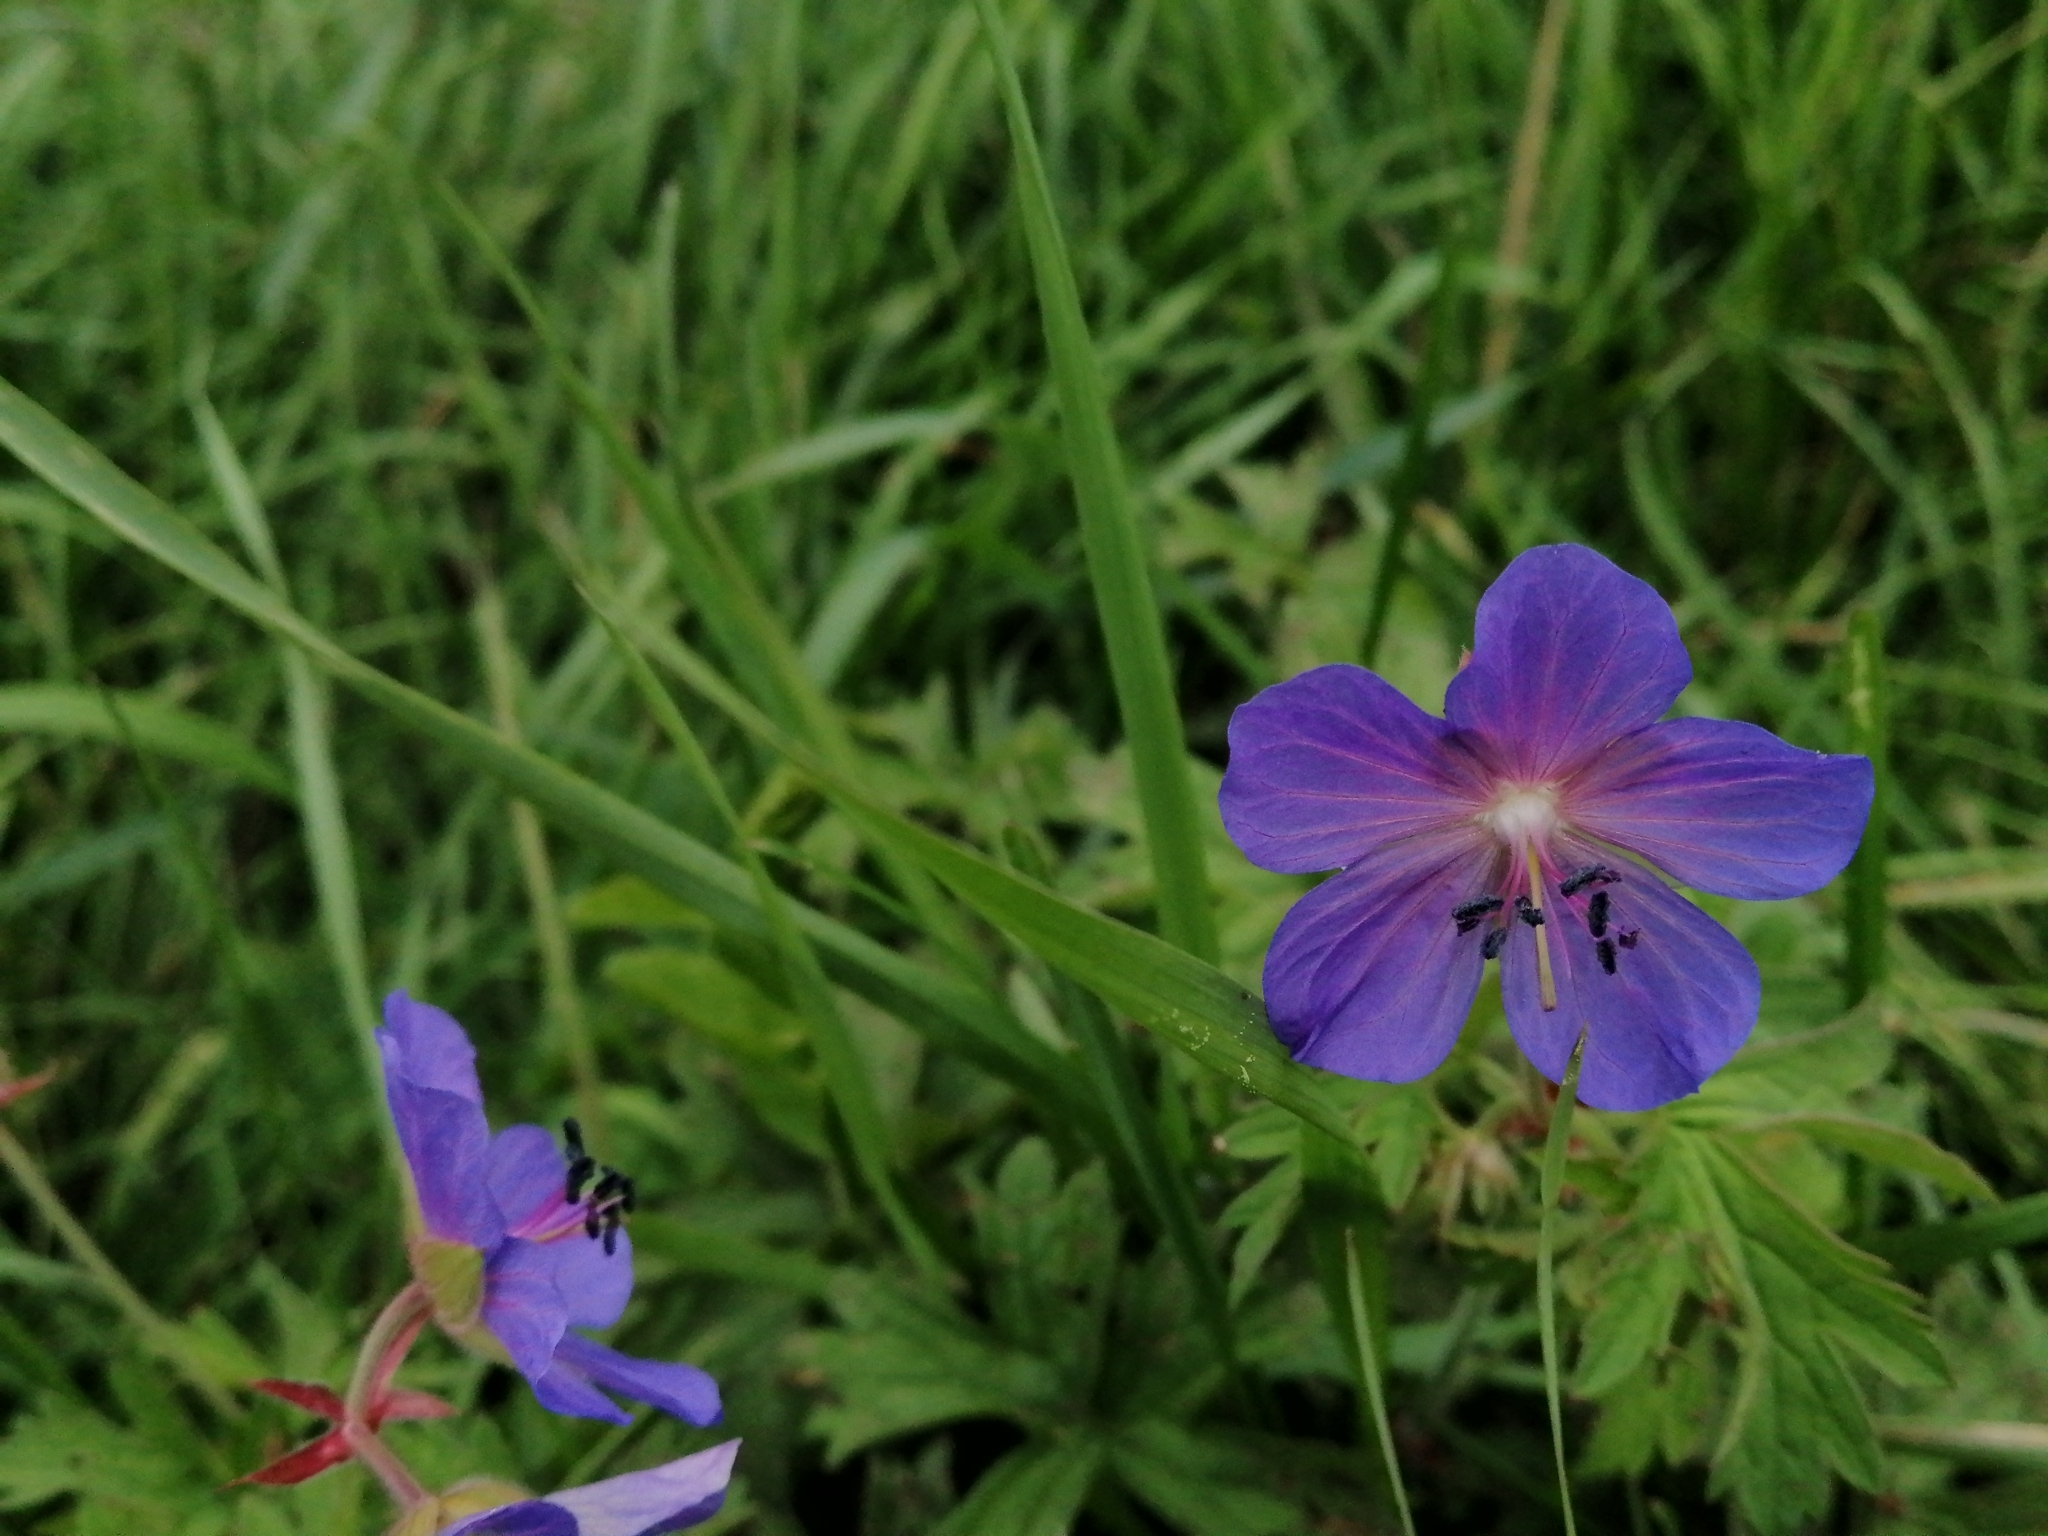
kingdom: Plantae
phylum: Tracheophyta
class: Magnoliopsida
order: Geraniales
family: Geraniaceae
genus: Geranium
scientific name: Geranium pratense
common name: Meadow crane's-bill
